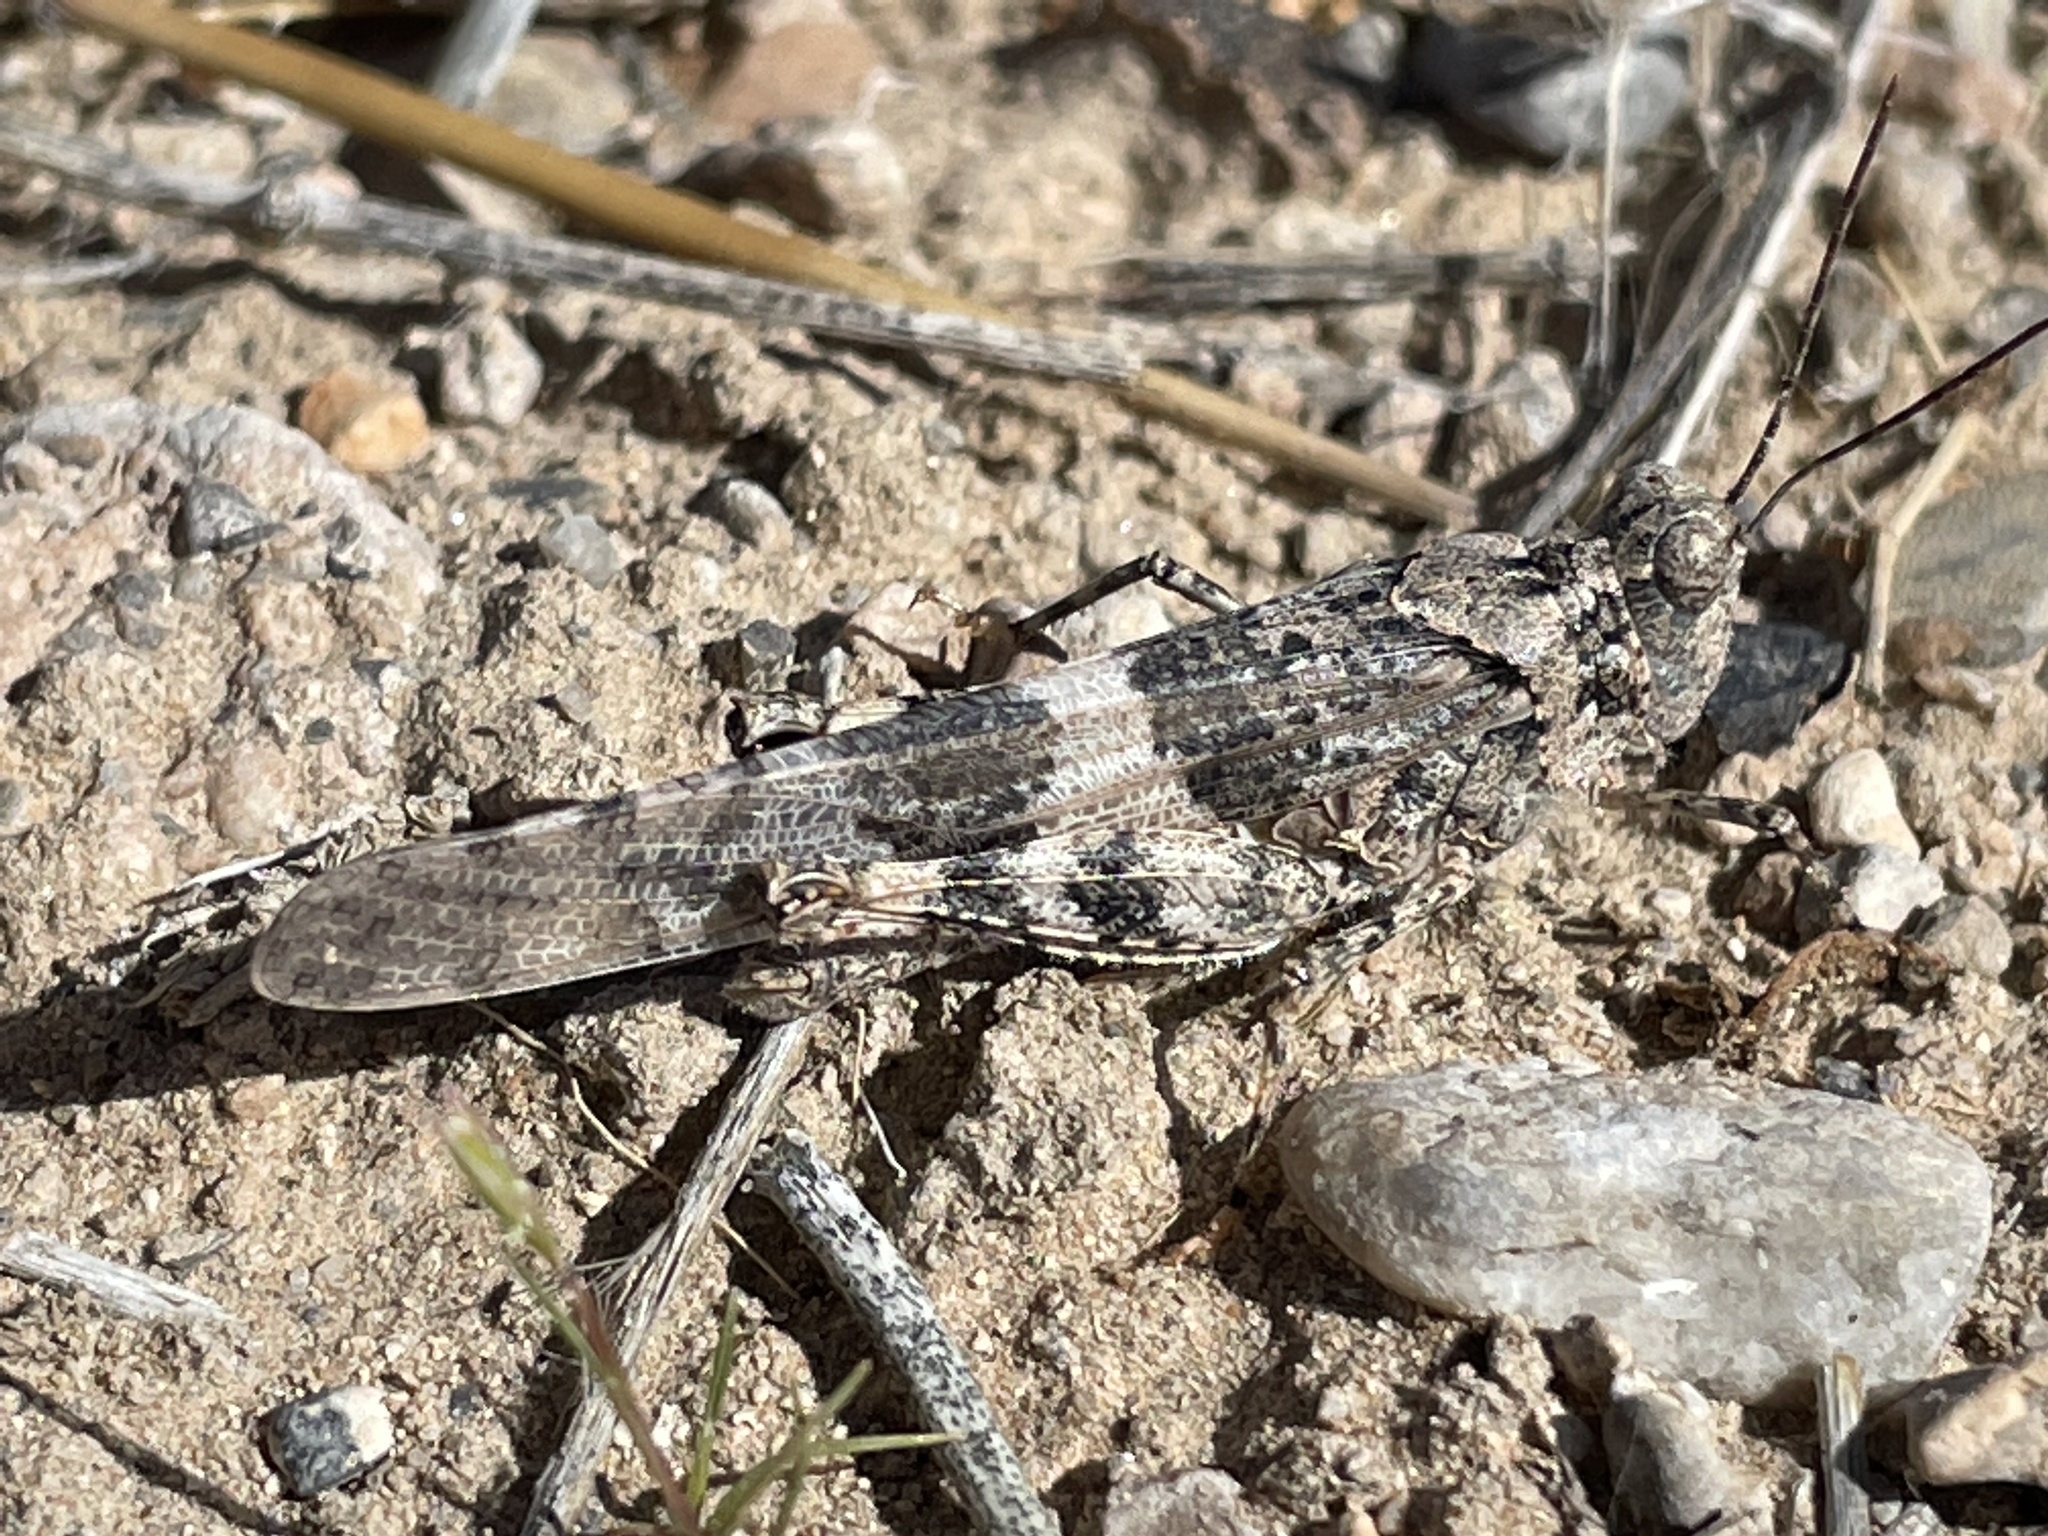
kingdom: Animalia
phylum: Arthropoda
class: Insecta
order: Orthoptera
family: Acrididae
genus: Trimerotropis
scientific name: Trimerotropis pallidipennis
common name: Pallid-winged grasshopper
